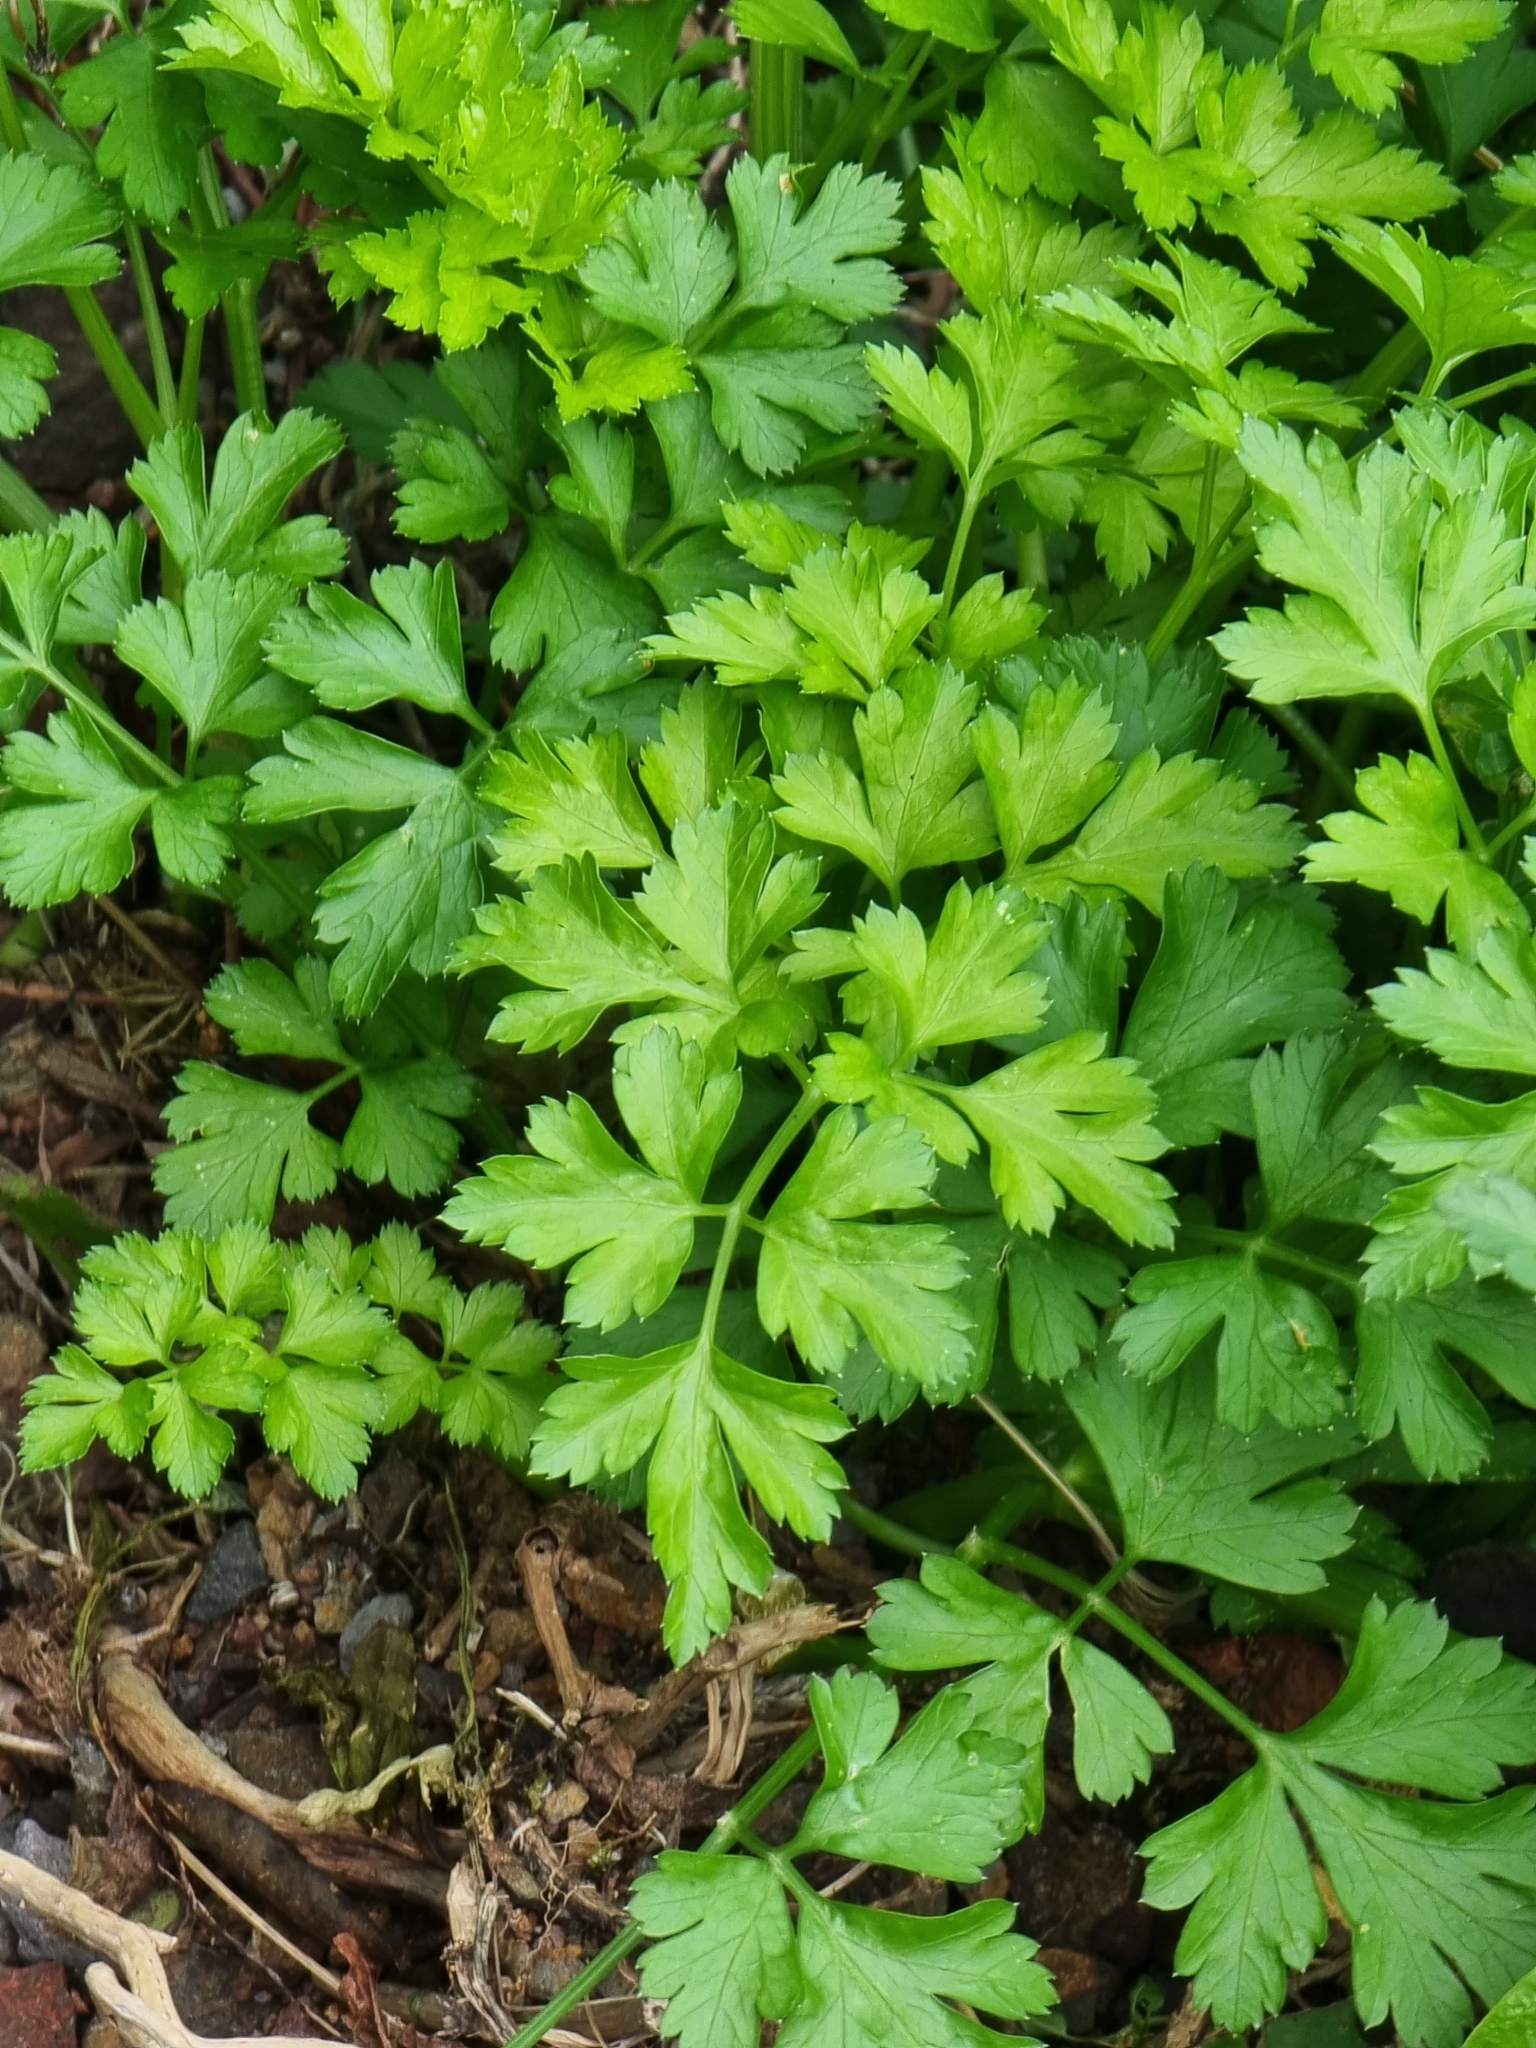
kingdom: Plantae
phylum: Tracheophyta
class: Magnoliopsida
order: Apiales
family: Apiaceae
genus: Petroselinum
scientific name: Petroselinum crispum
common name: Parsley
